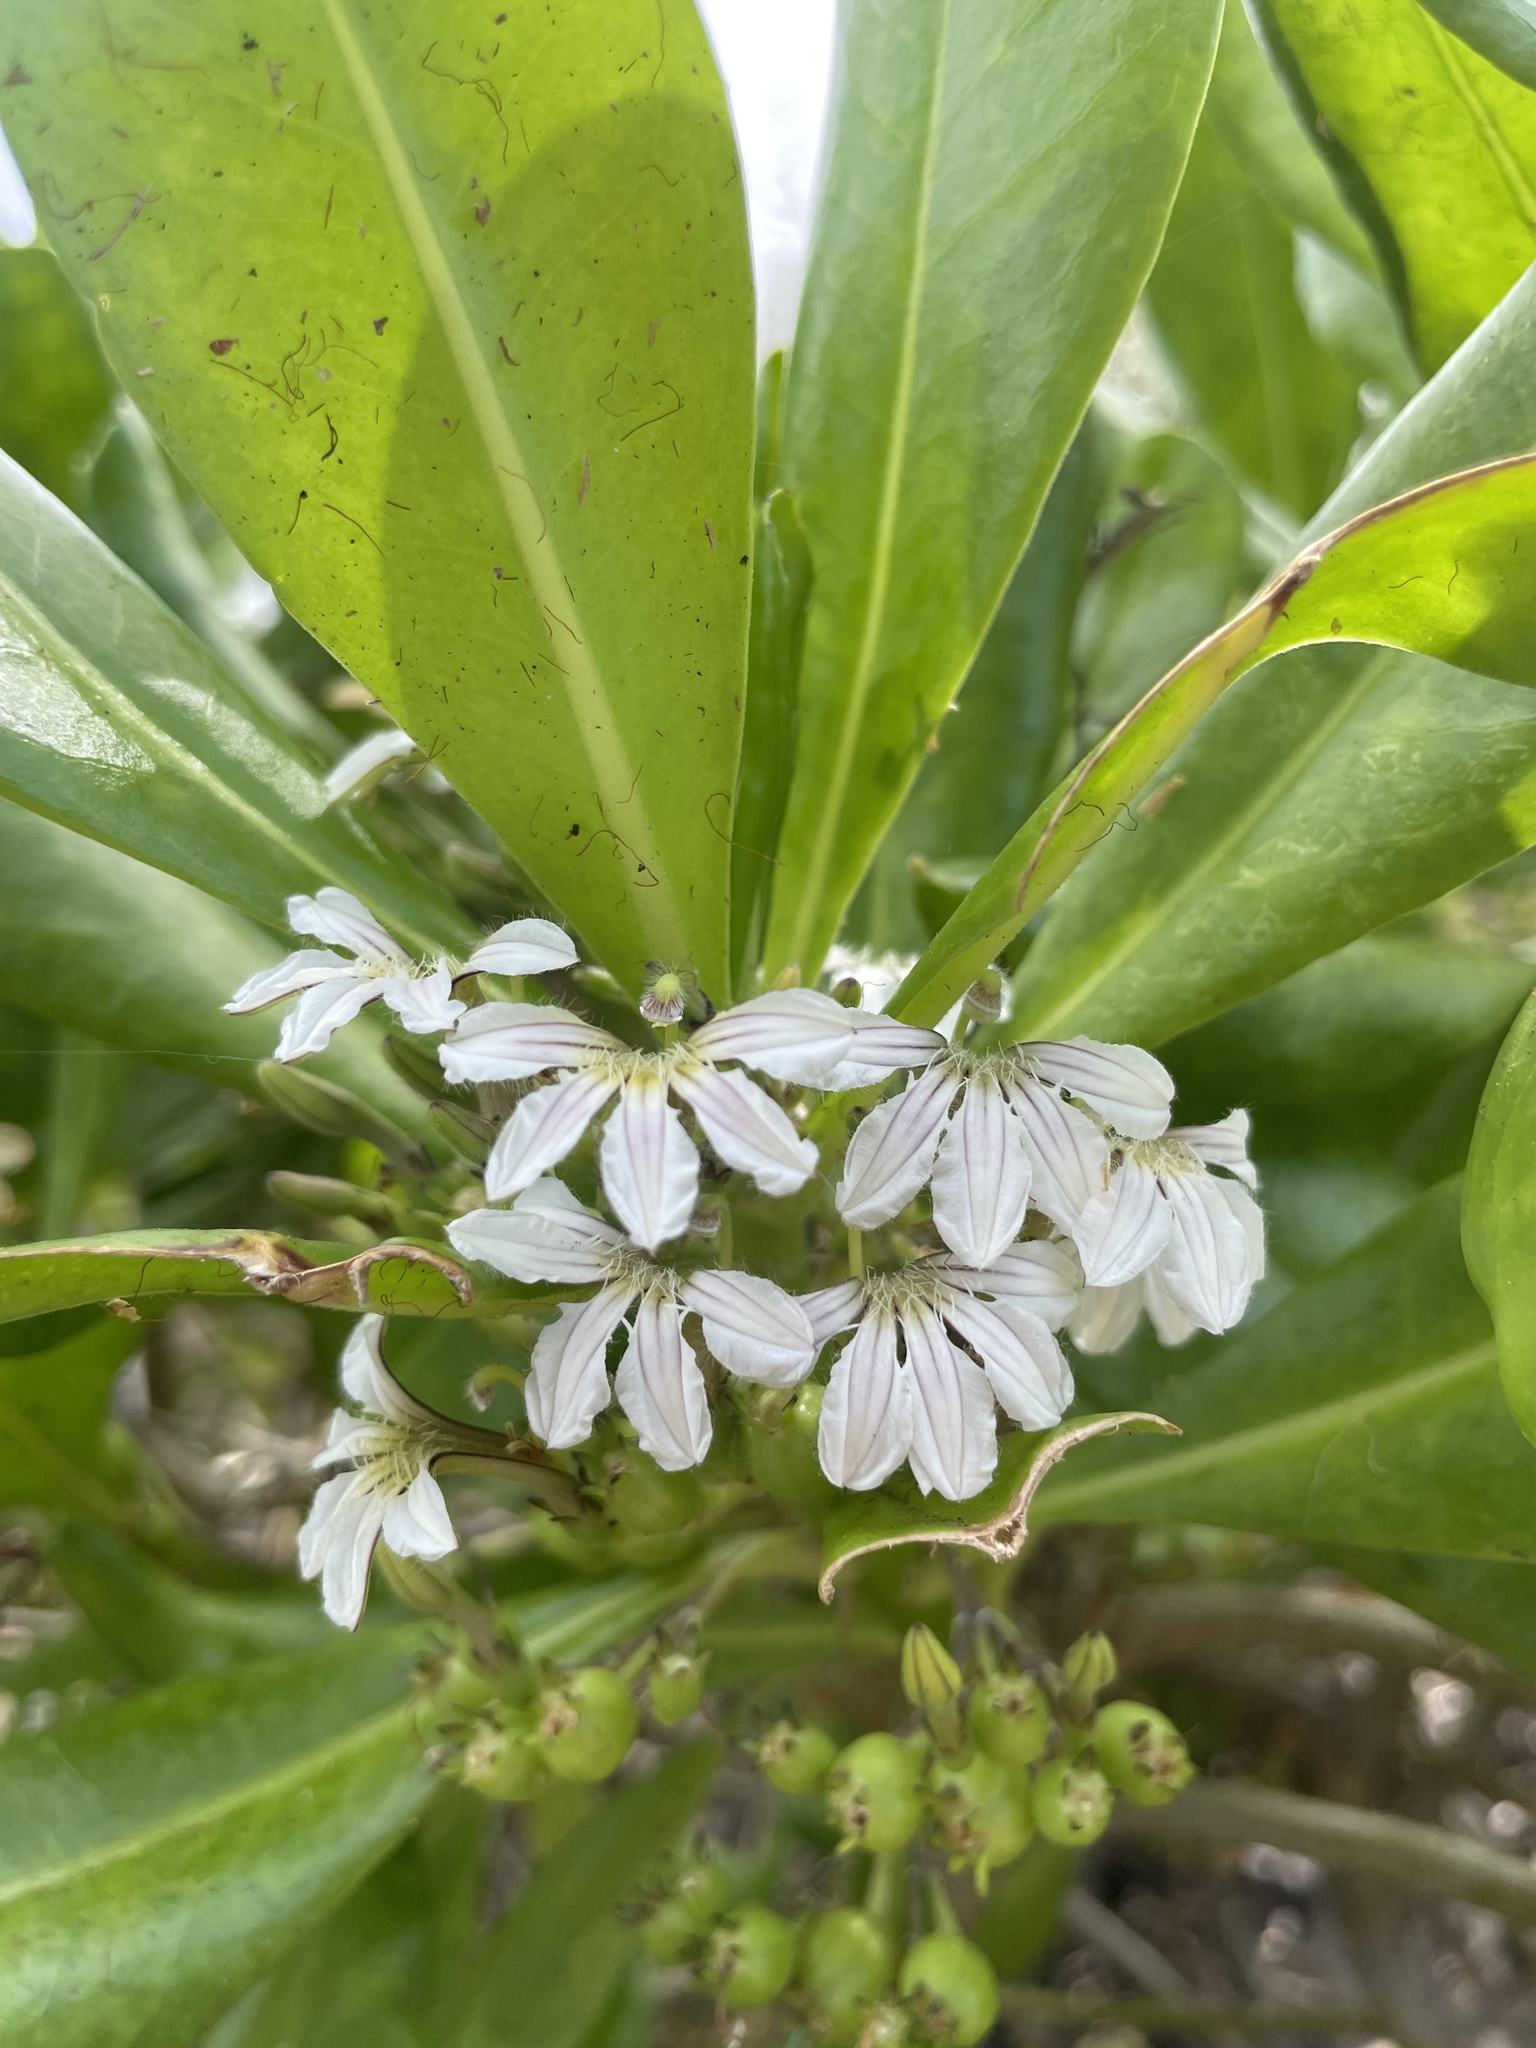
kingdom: Plantae
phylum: Tracheophyta
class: Magnoliopsida
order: Asterales
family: Goodeniaceae
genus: Scaevola
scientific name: Scaevola taccada
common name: Sea lettucetree
